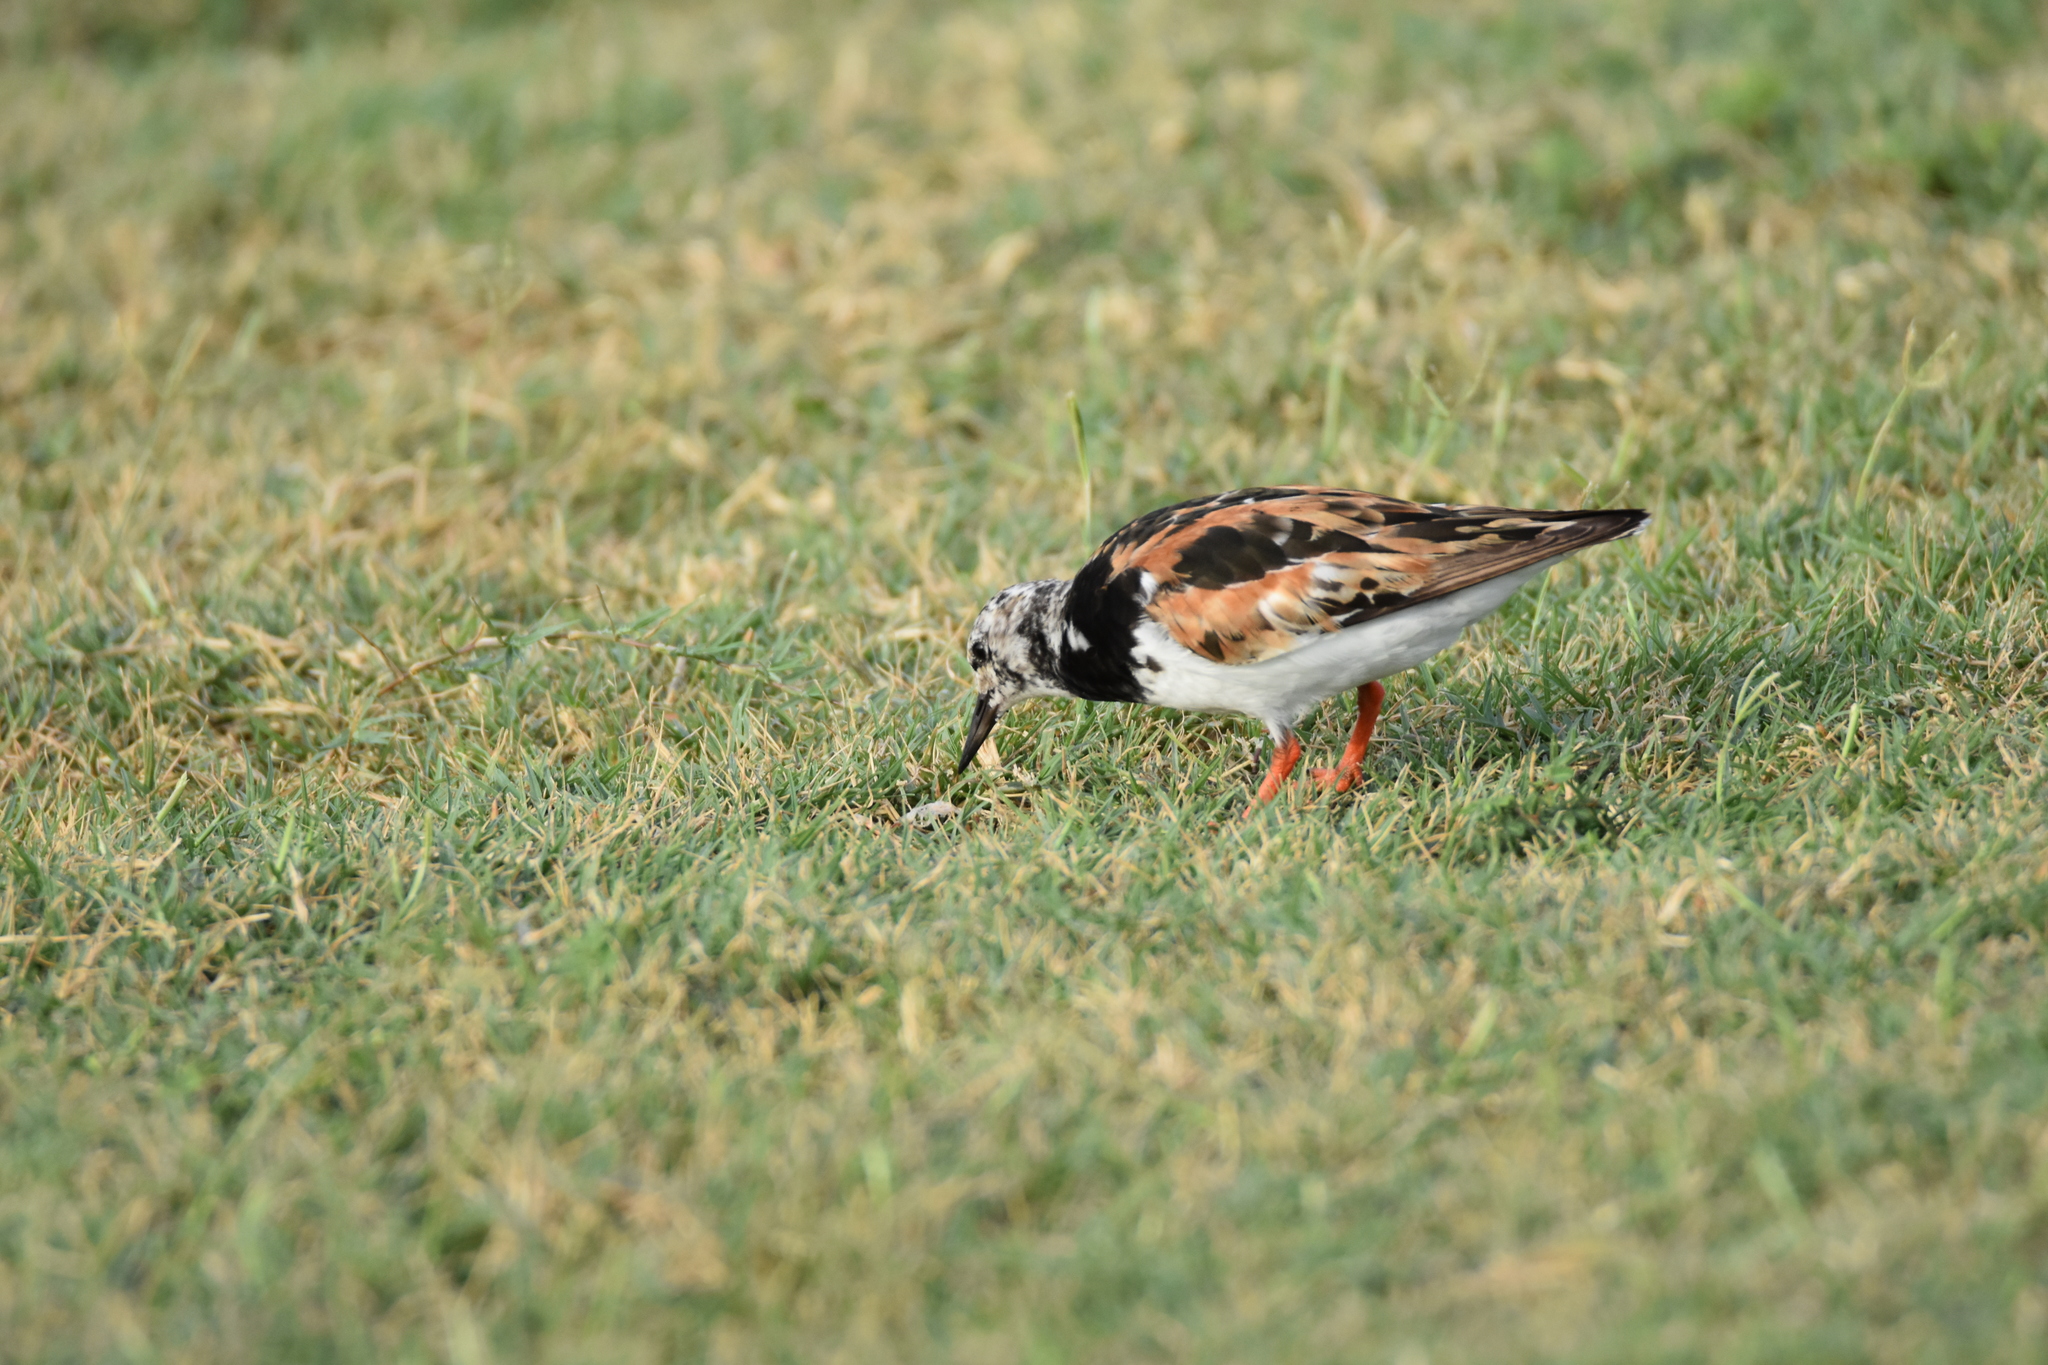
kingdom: Animalia
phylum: Chordata
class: Aves
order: Charadriiformes
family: Scolopacidae
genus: Arenaria
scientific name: Arenaria interpres
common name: Ruddy turnstone
